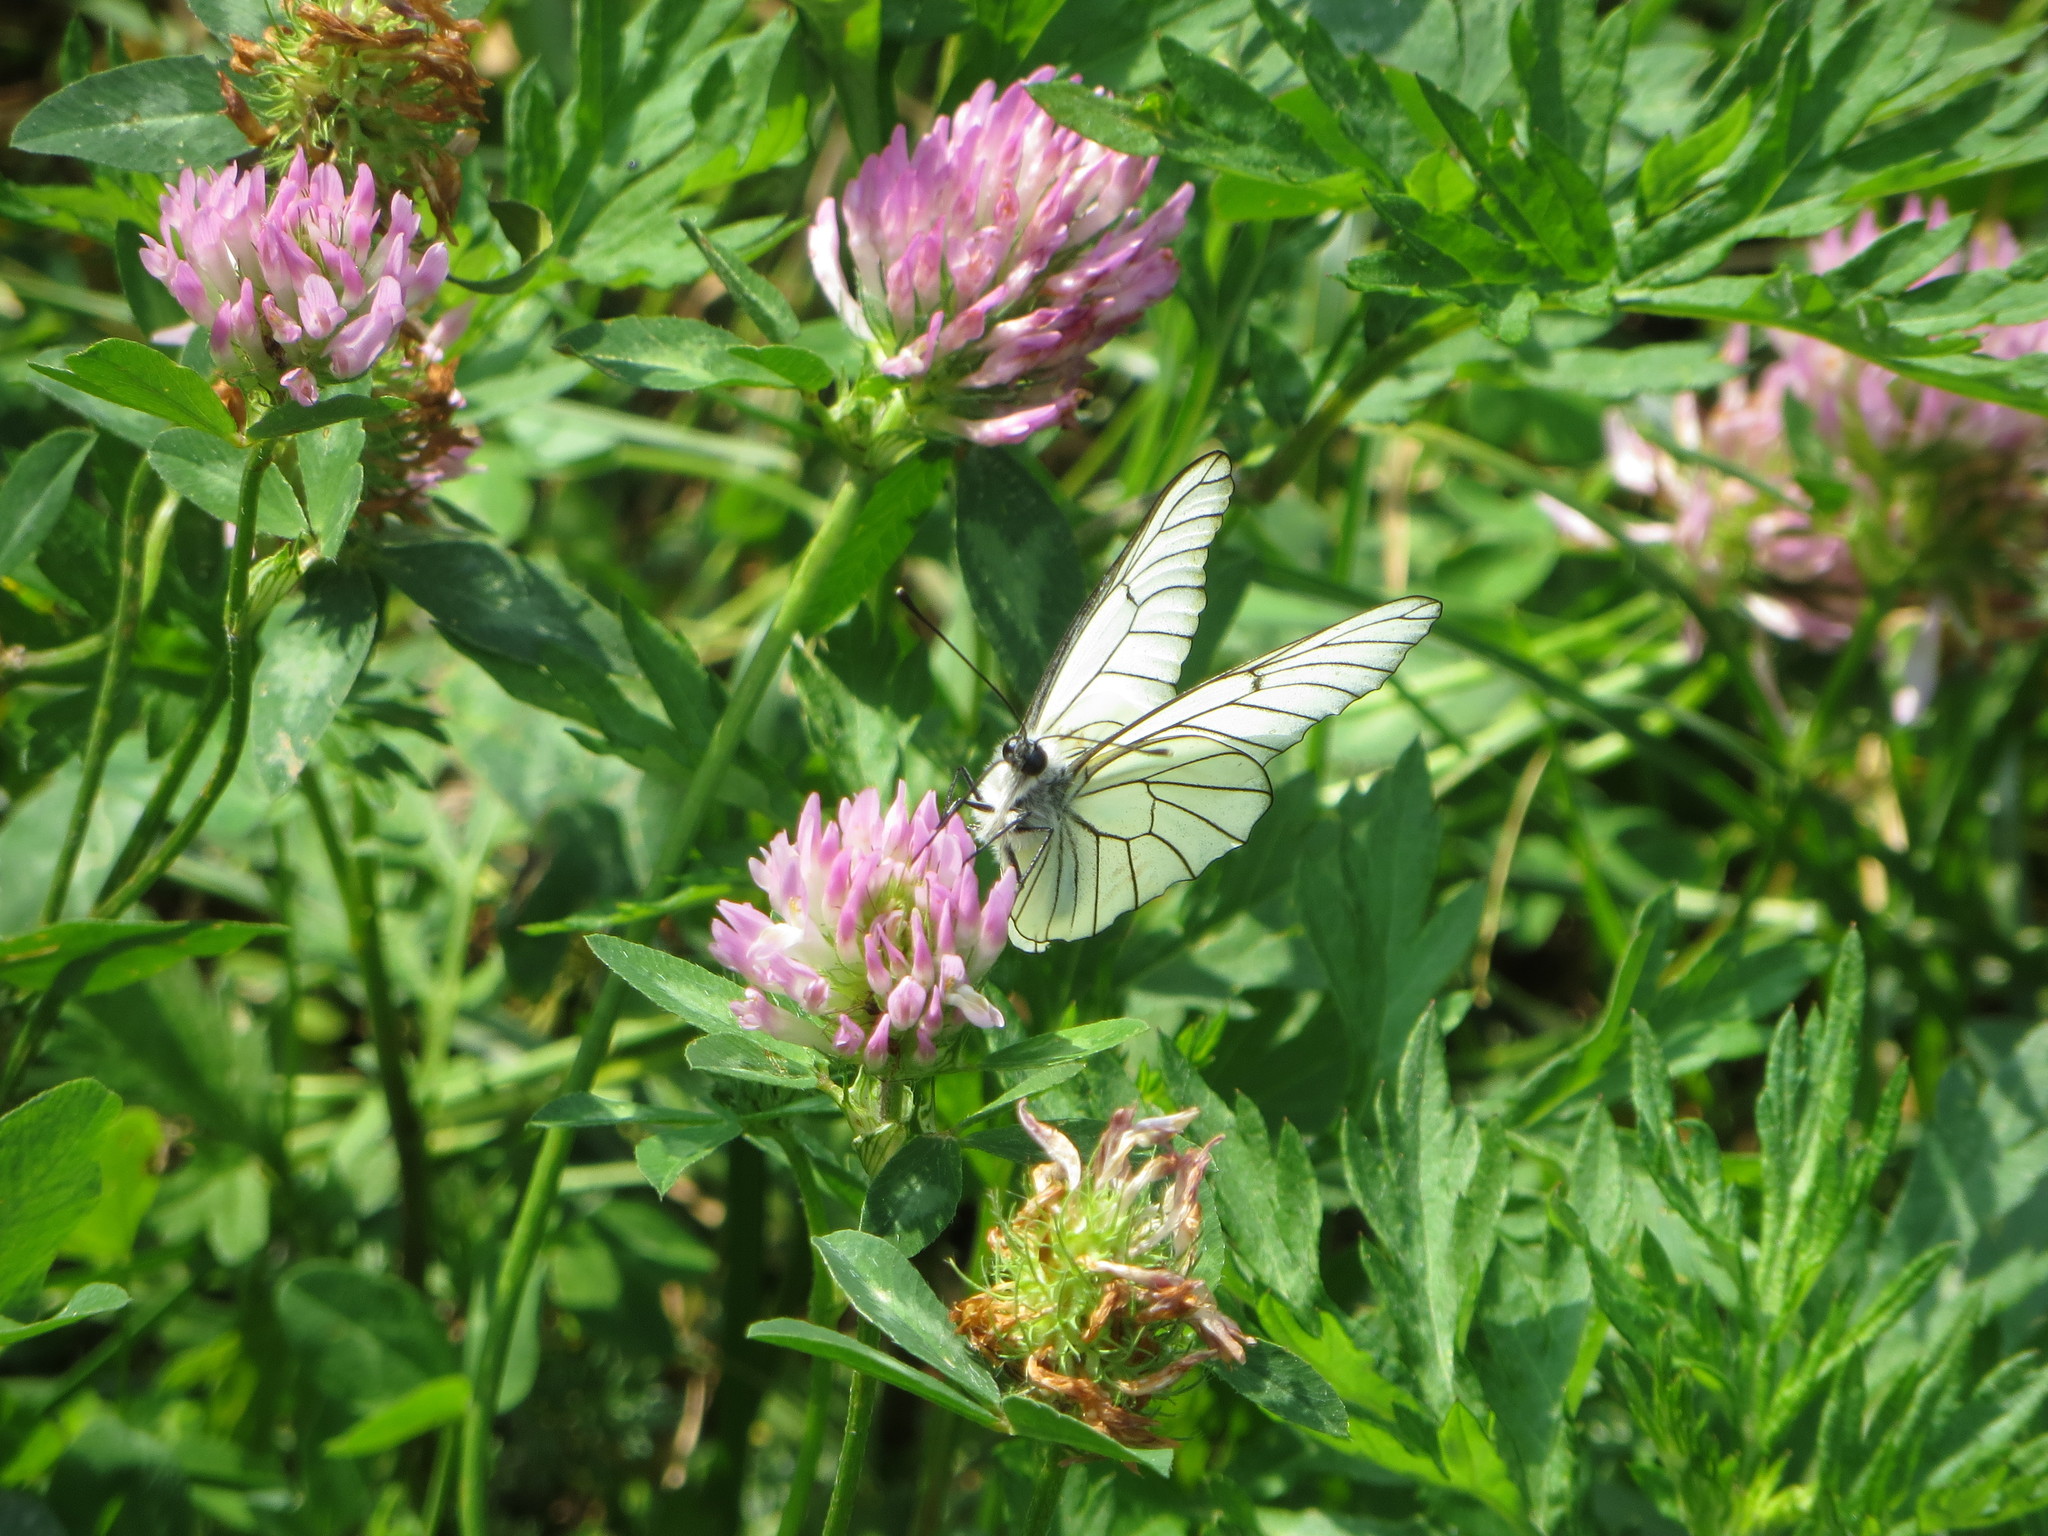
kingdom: Animalia
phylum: Arthropoda
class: Insecta
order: Lepidoptera
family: Pieridae
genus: Aporia
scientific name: Aporia crataegi
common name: Black-veined white
